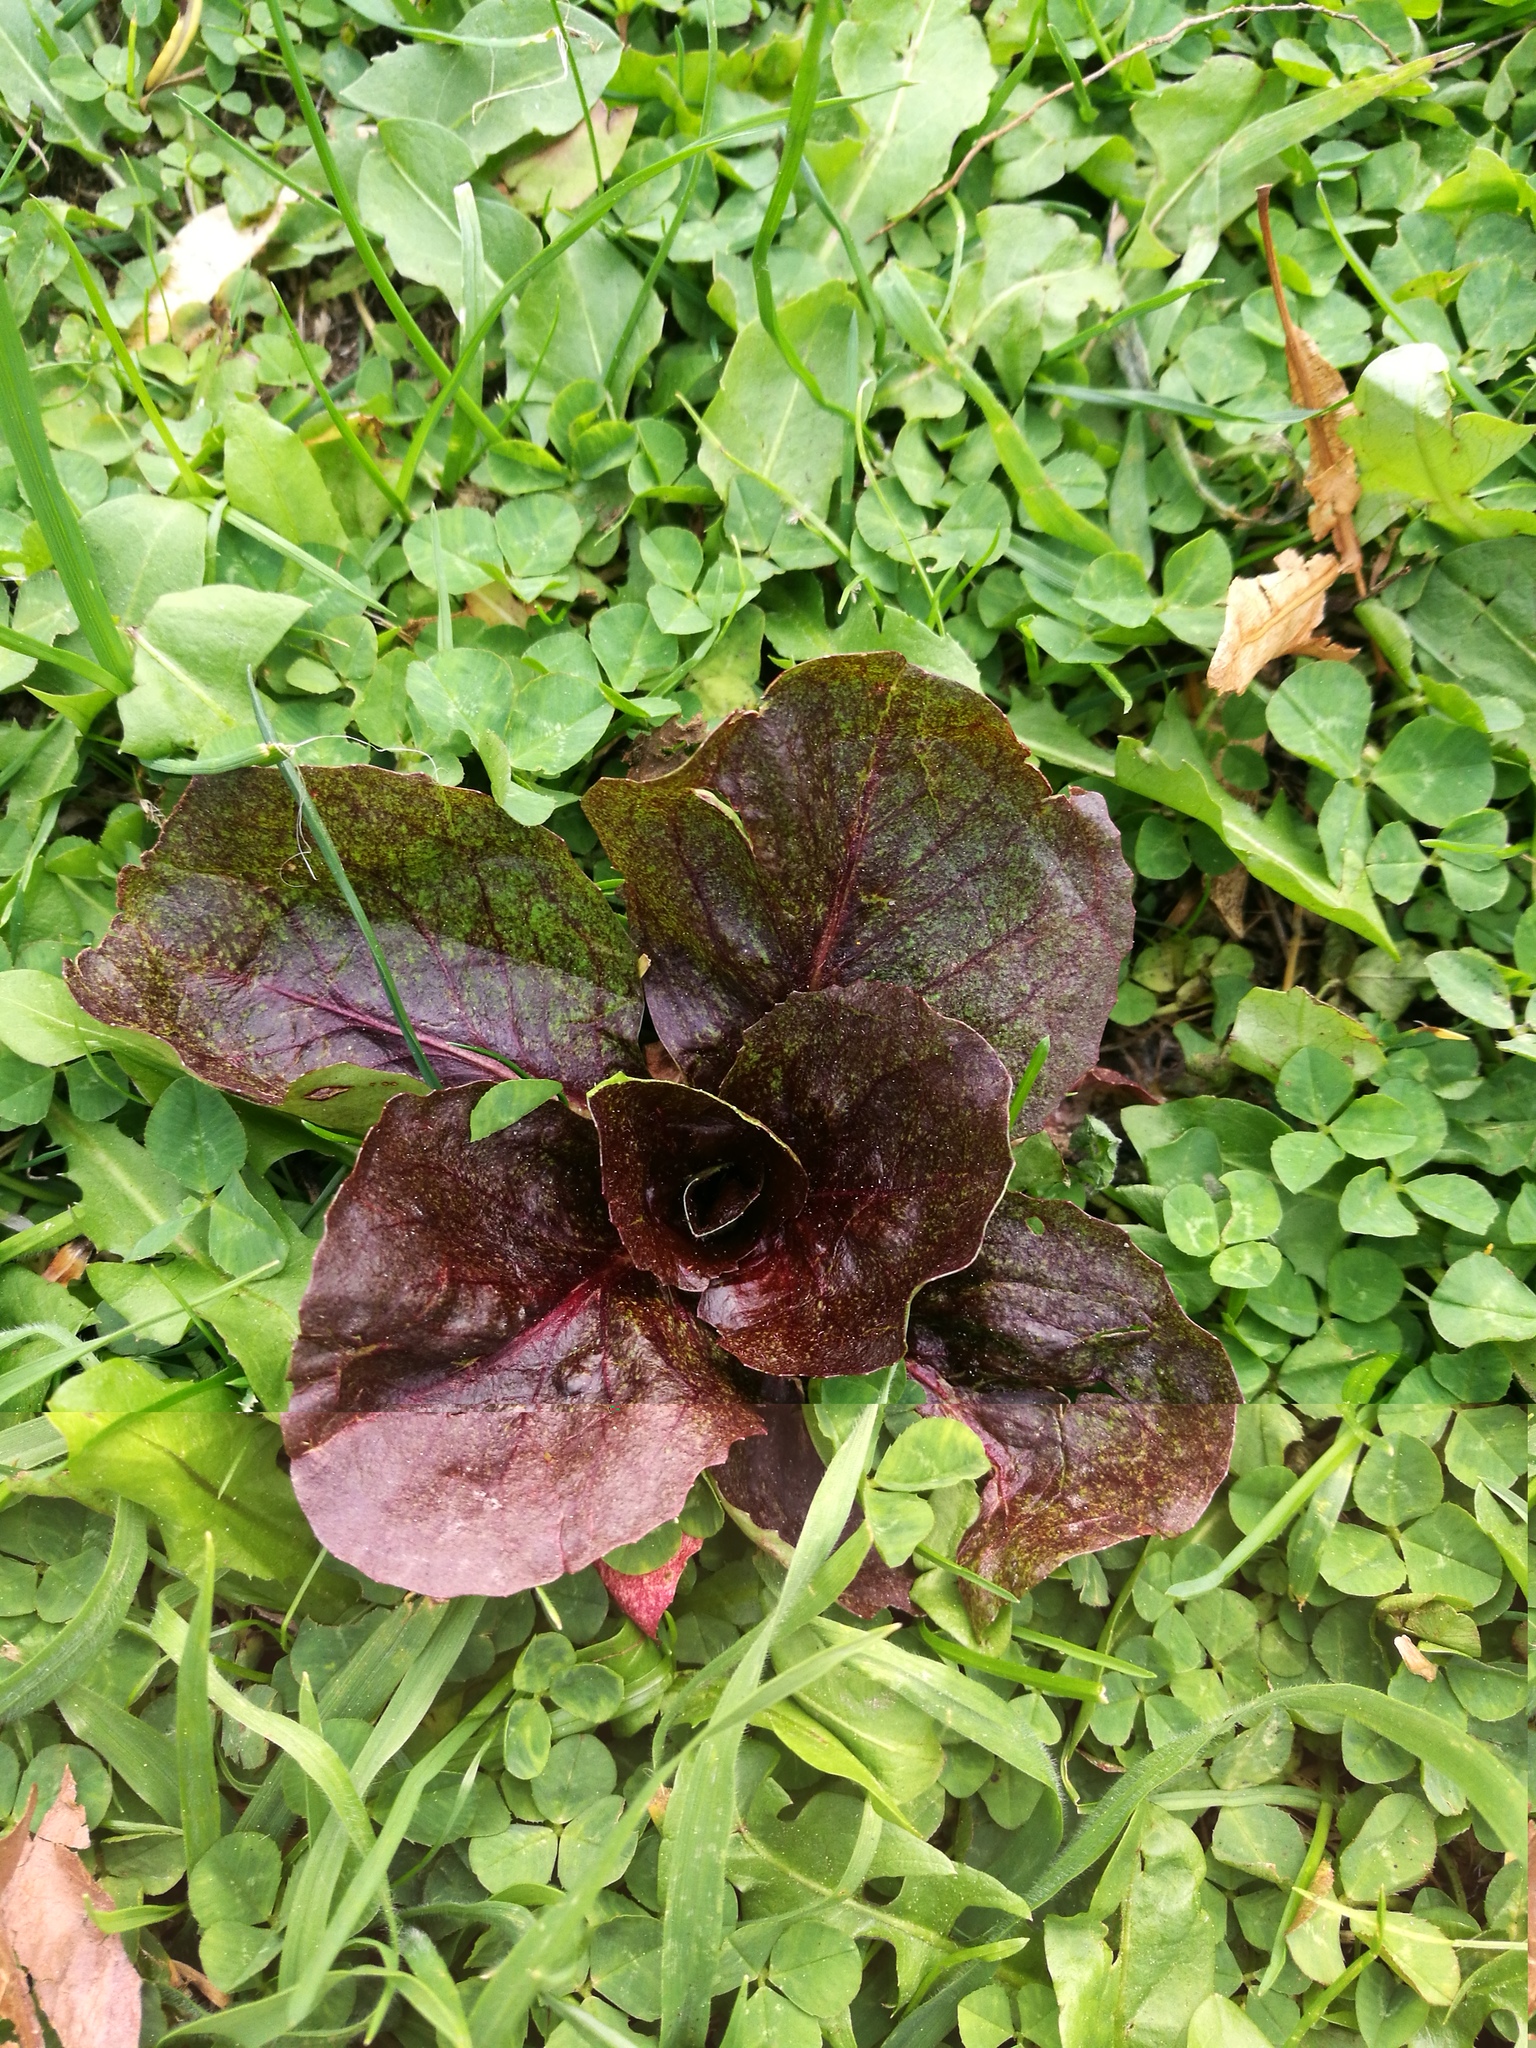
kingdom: Plantae
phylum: Tracheophyta
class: Magnoliopsida
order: Asterales
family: Asteraceae
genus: Lactuca
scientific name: Lactuca sativa
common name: Garden lettuce
